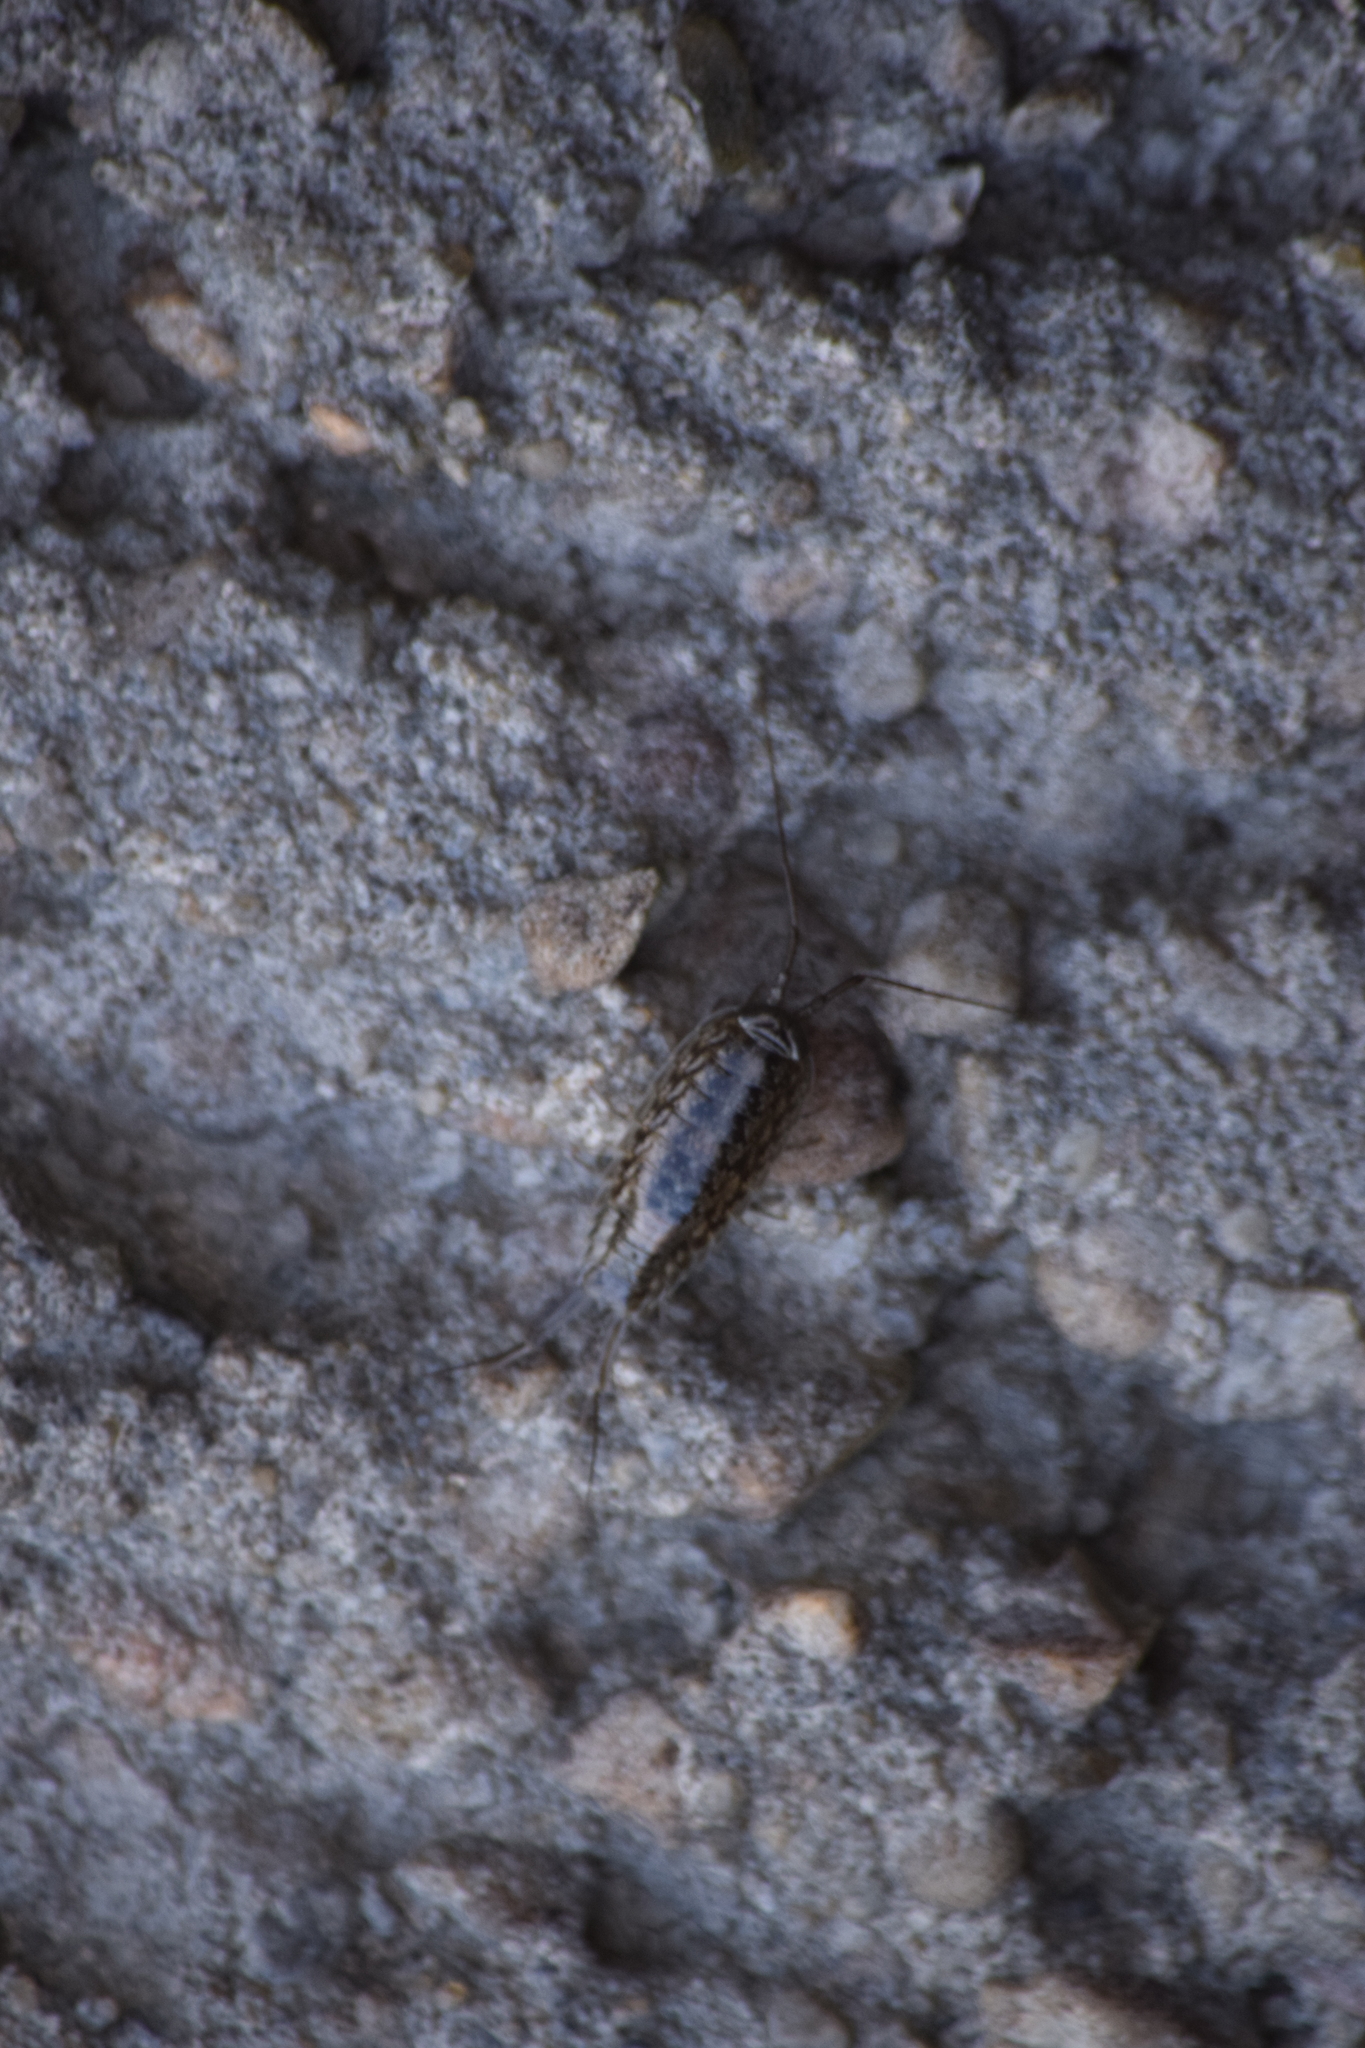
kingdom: Animalia
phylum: Arthropoda
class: Malacostraca
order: Isopoda
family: Ligiidae
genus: Ligia
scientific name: Ligia exotica
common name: Wharf roach
